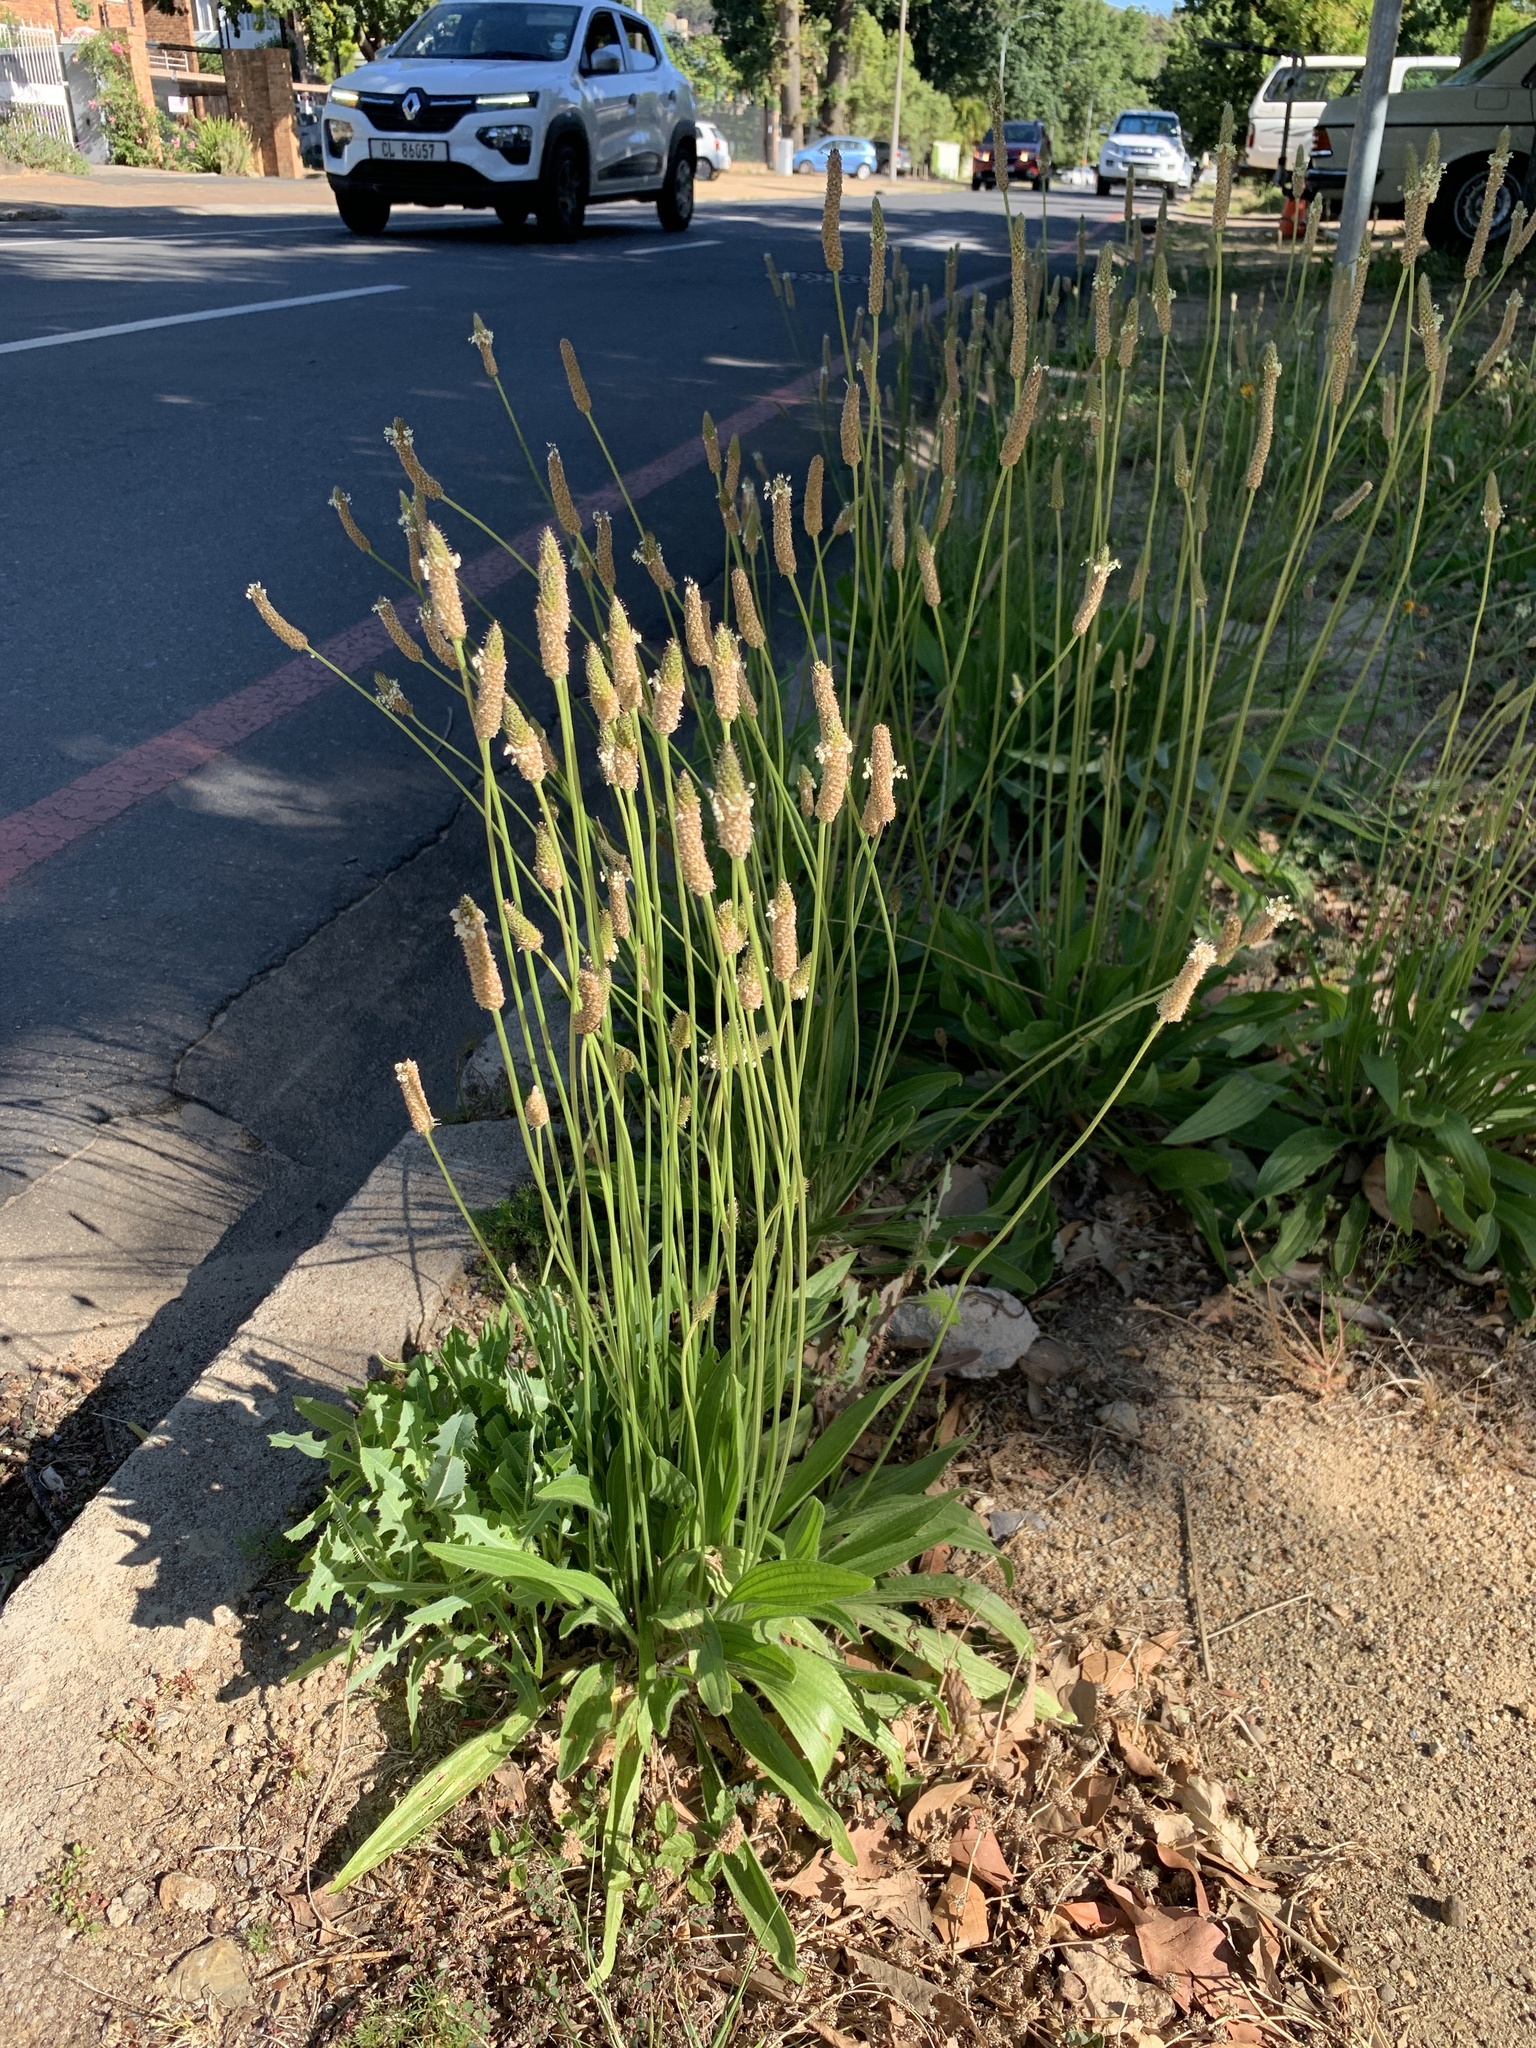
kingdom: Plantae
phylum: Tracheophyta
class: Magnoliopsida
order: Lamiales
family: Plantaginaceae
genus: Plantago
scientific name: Plantago lanceolata
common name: Ribwort plantain
